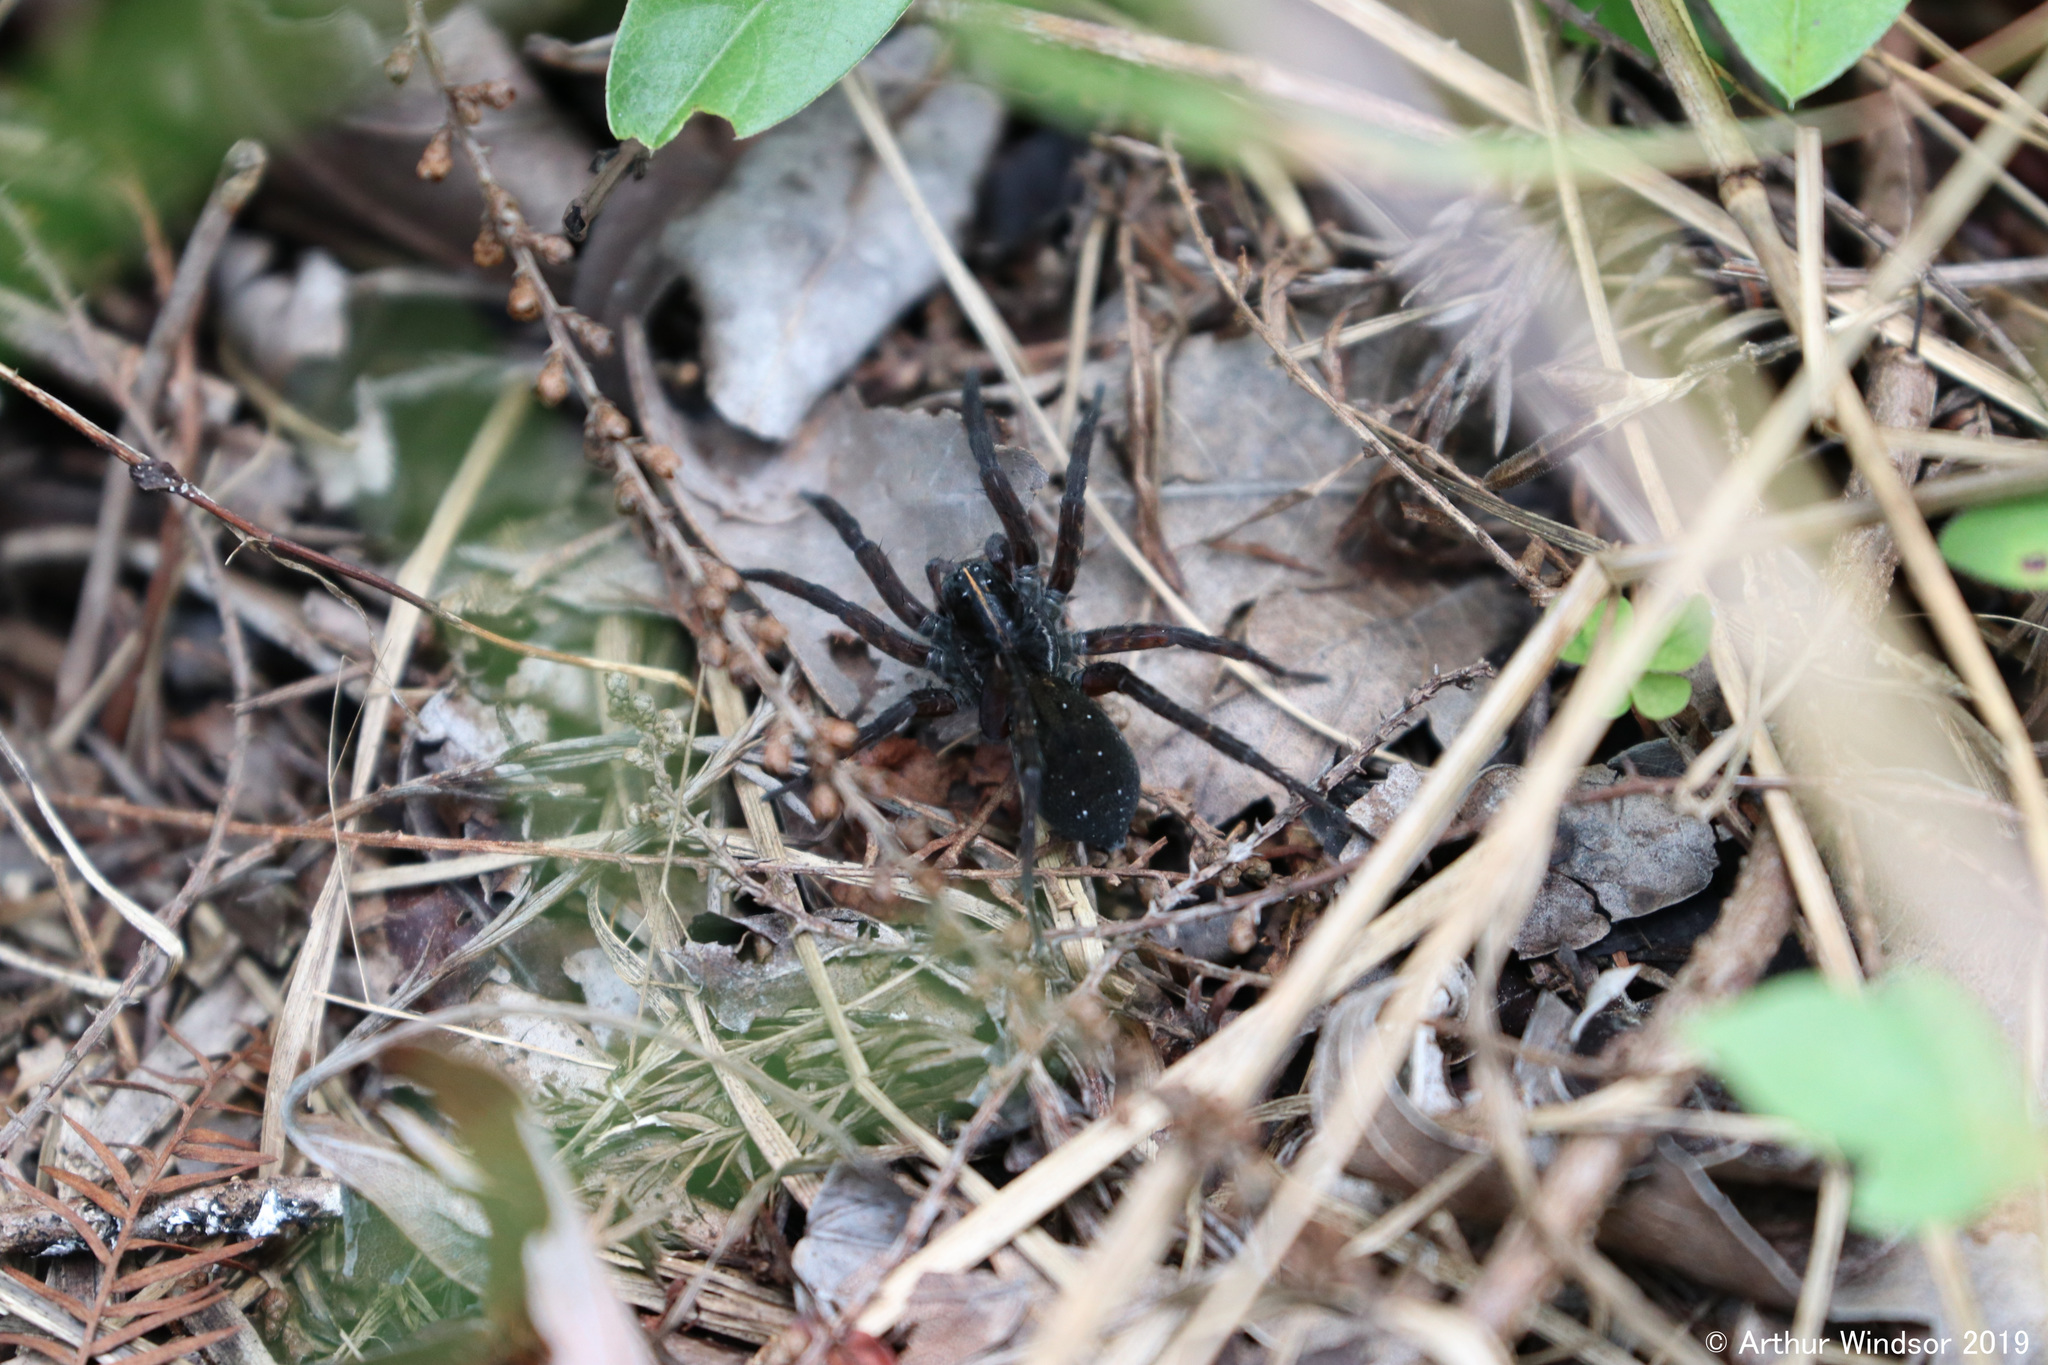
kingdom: Animalia
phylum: Arthropoda
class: Arachnida
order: Araneae
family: Lycosidae
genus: Tigrosa
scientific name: Tigrosa georgicola
